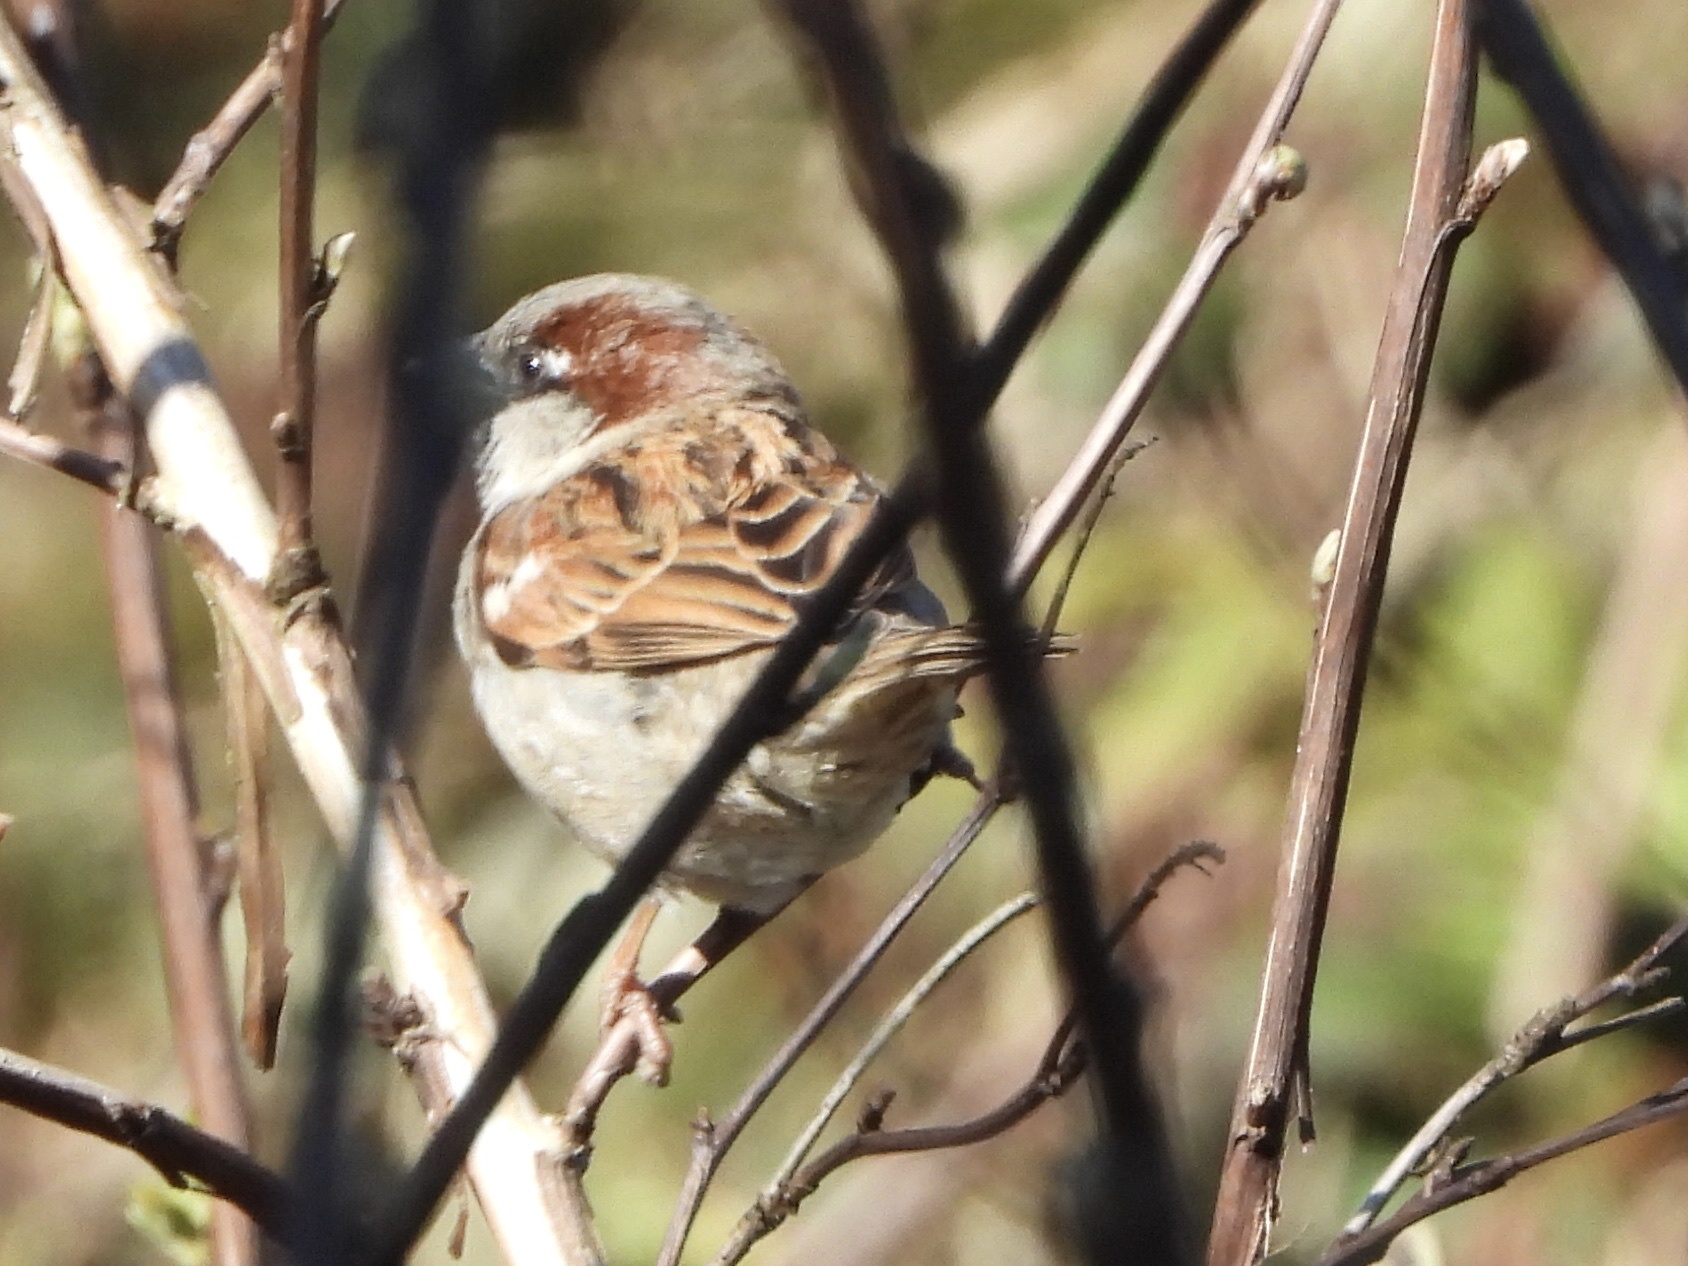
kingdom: Animalia
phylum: Chordata
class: Aves
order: Passeriformes
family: Passeridae
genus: Passer
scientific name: Passer domesticus
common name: House sparrow
